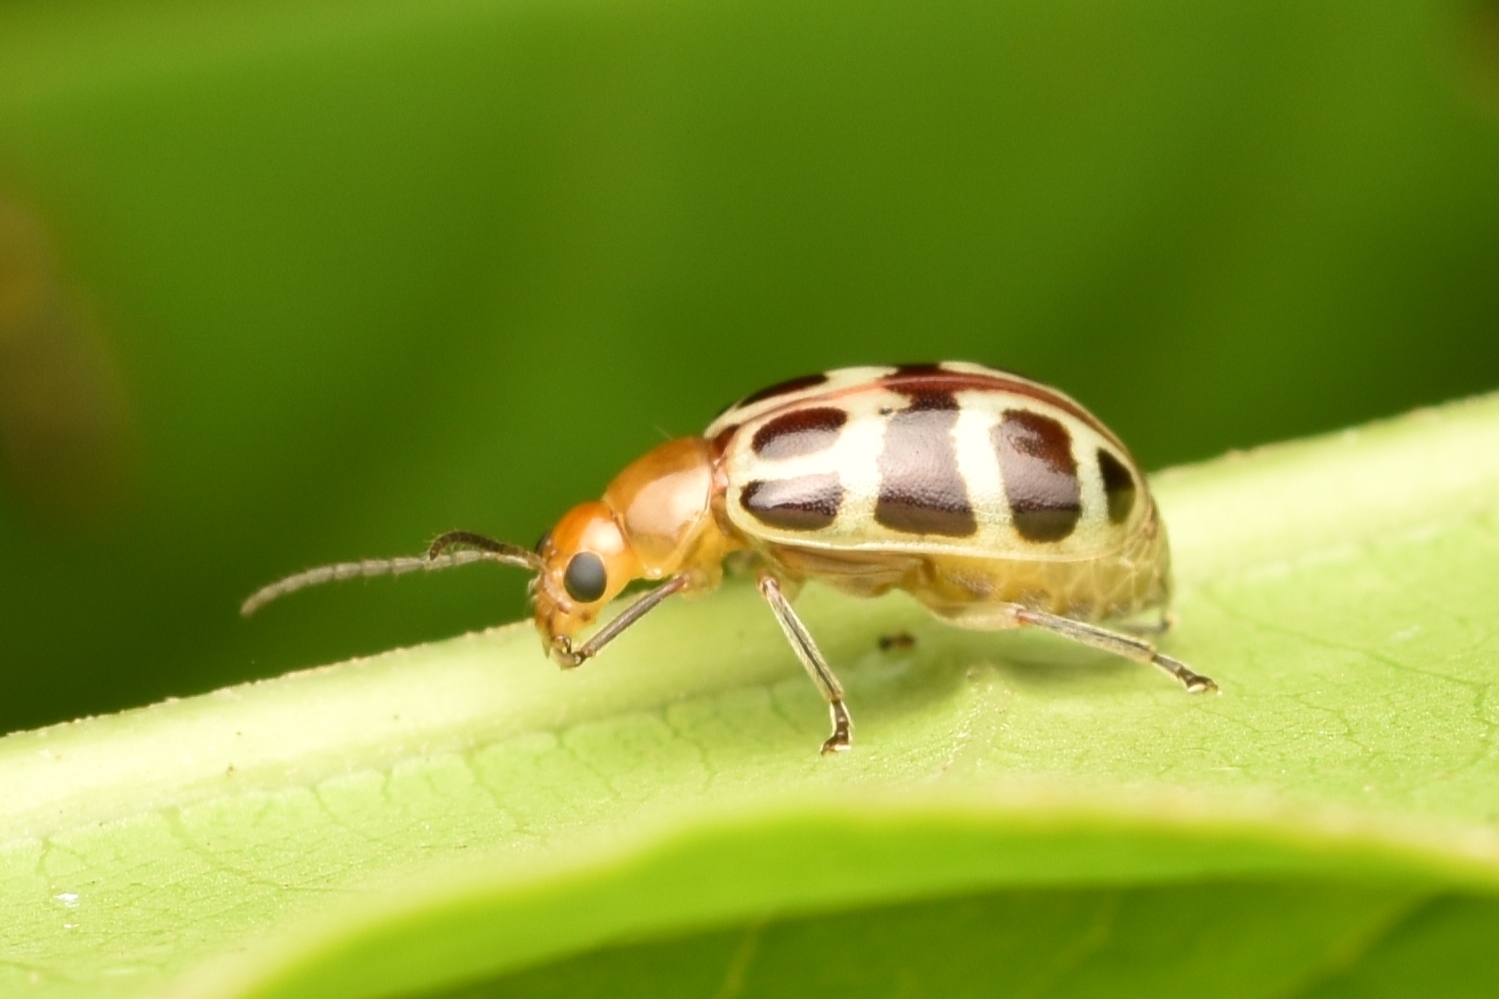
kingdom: Animalia
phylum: Arthropoda
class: Insecta
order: Coleoptera
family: Chrysomelidae
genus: Exora
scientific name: Exora olivacea
